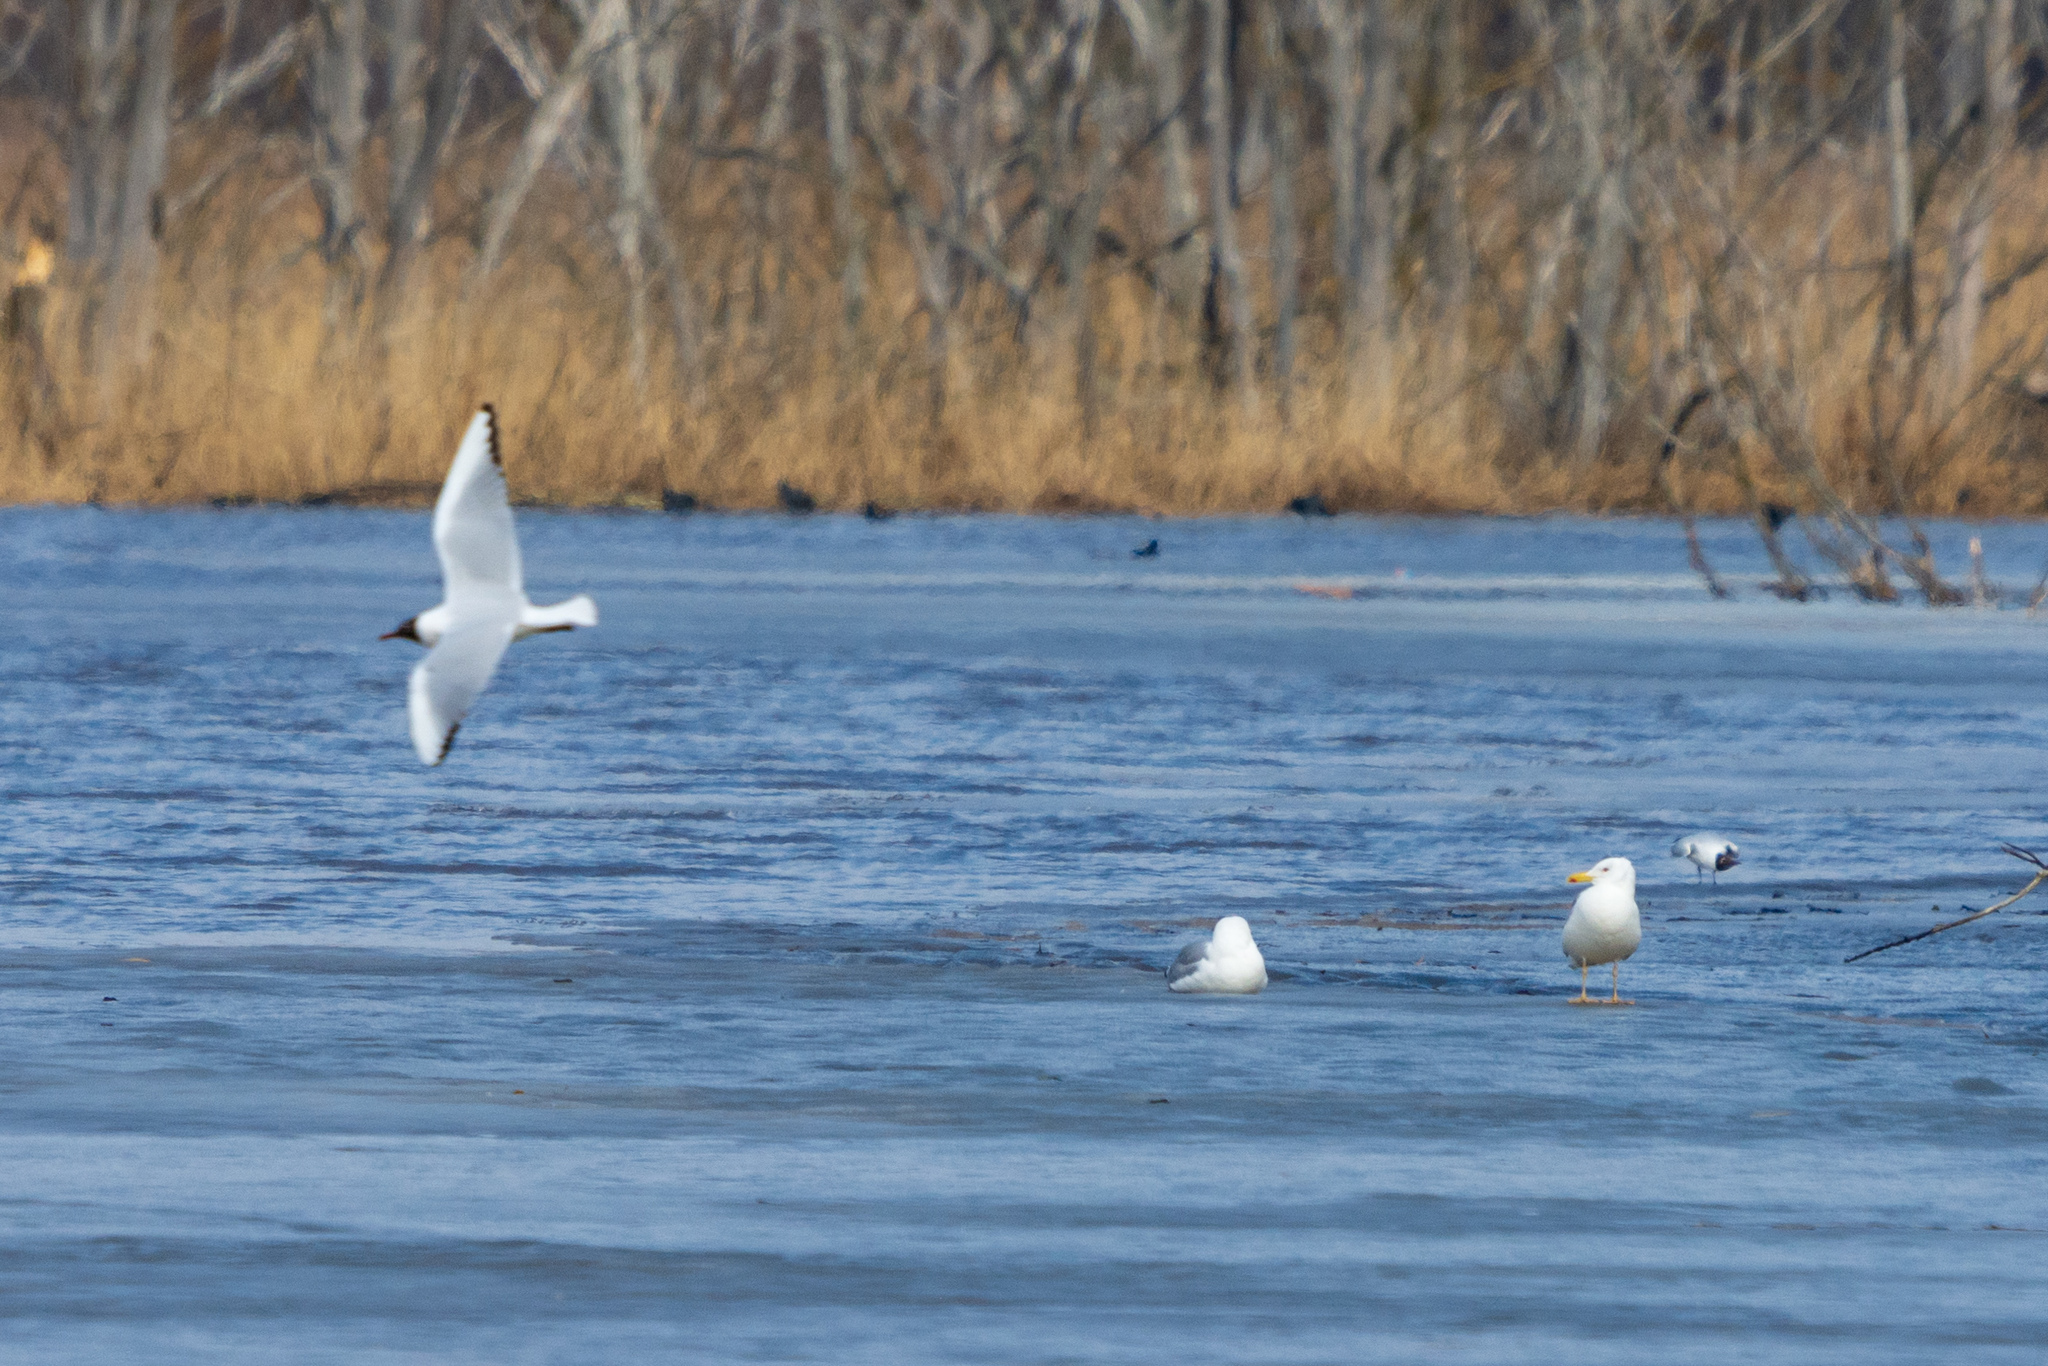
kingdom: Animalia
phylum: Chordata
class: Aves
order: Charadriiformes
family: Laridae
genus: Larus
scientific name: Larus cachinnans
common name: Caspian gull
